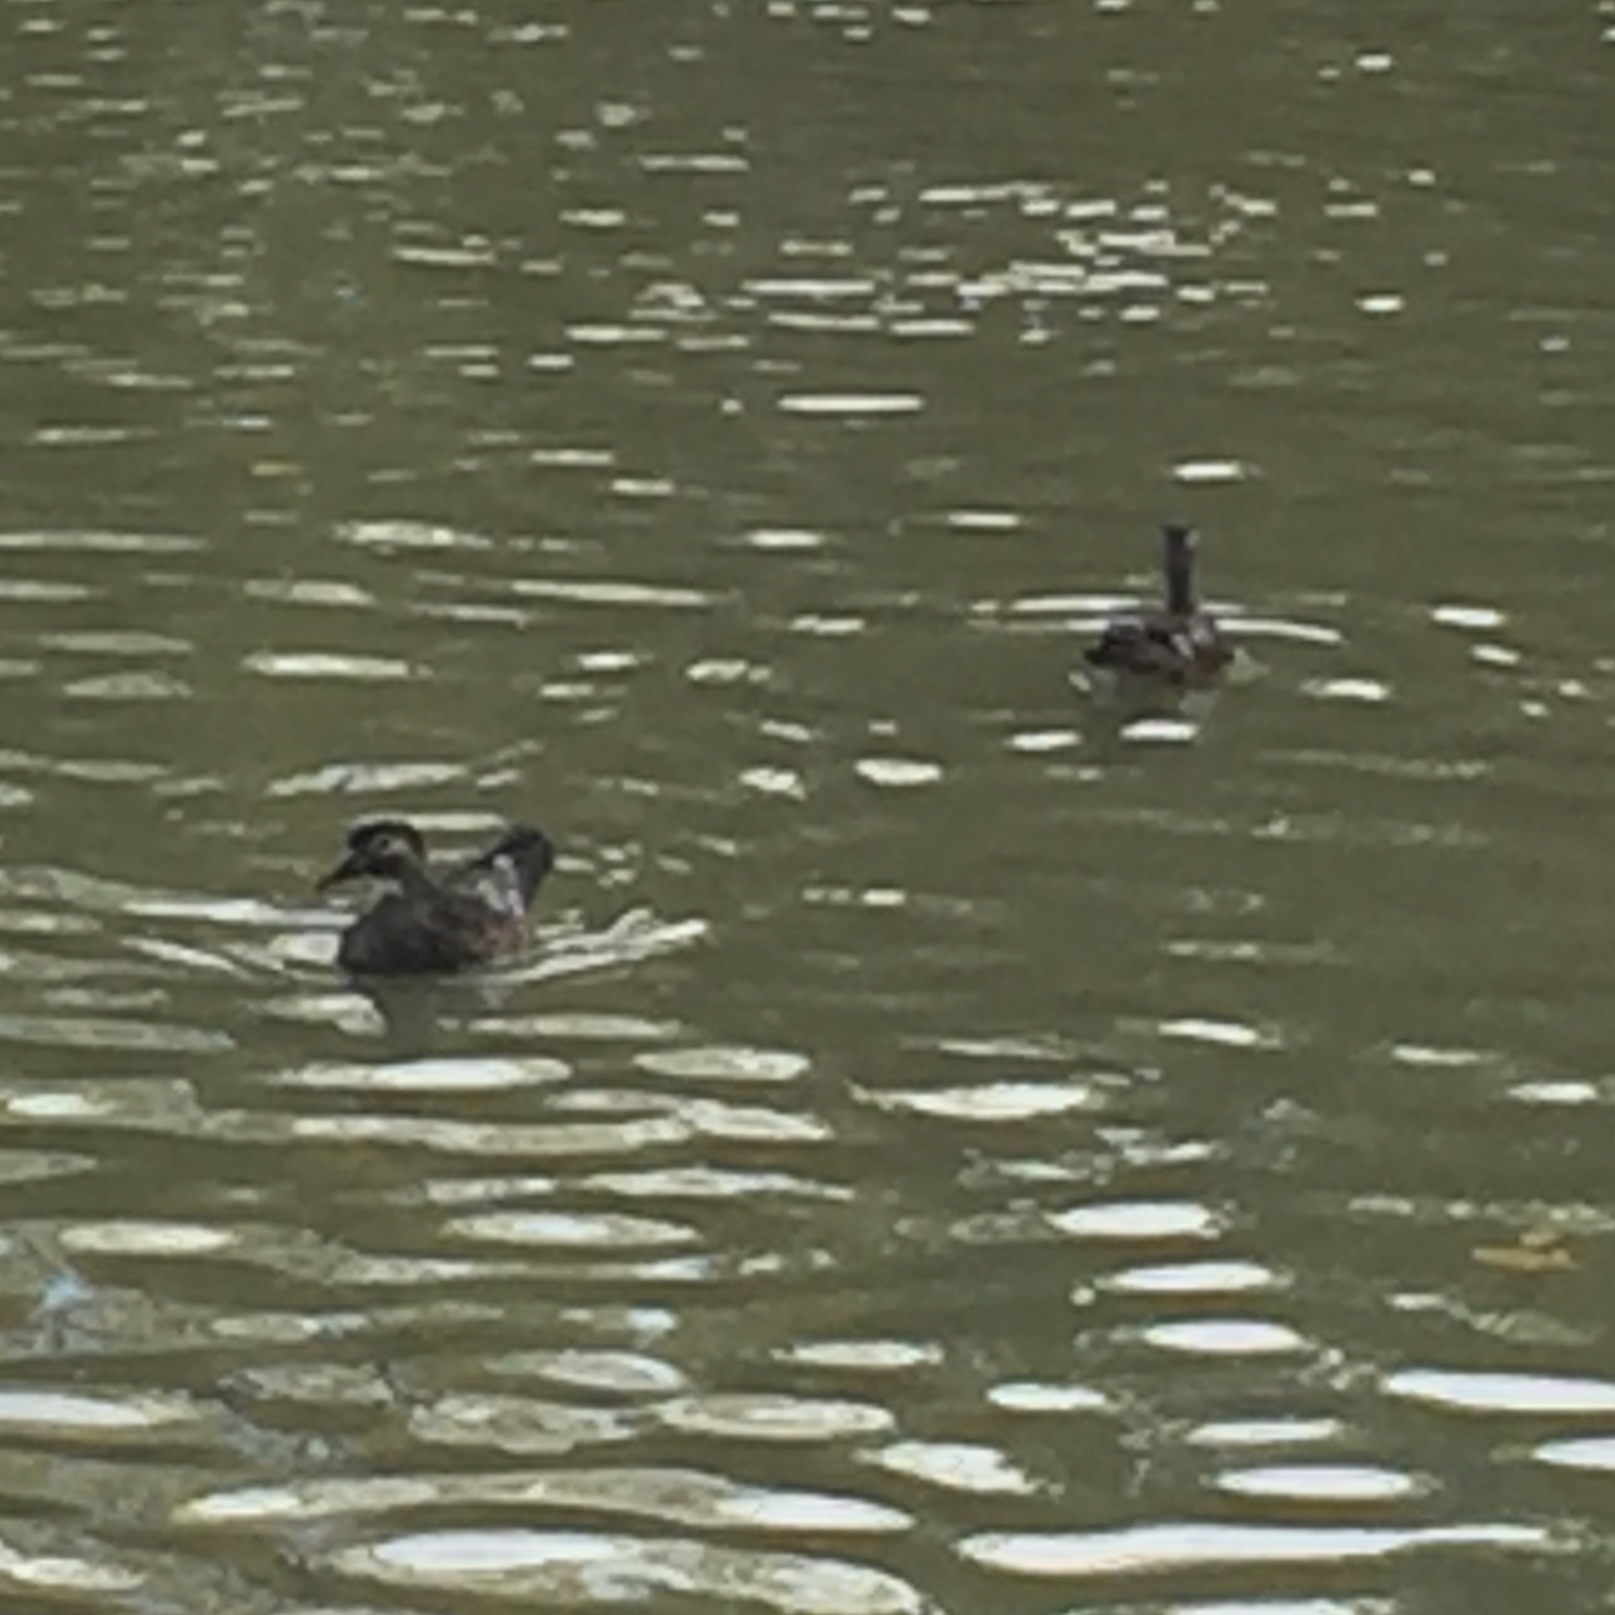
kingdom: Animalia
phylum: Chordata
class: Aves
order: Anseriformes
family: Anatidae
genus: Aix
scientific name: Aix sponsa
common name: Wood duck
